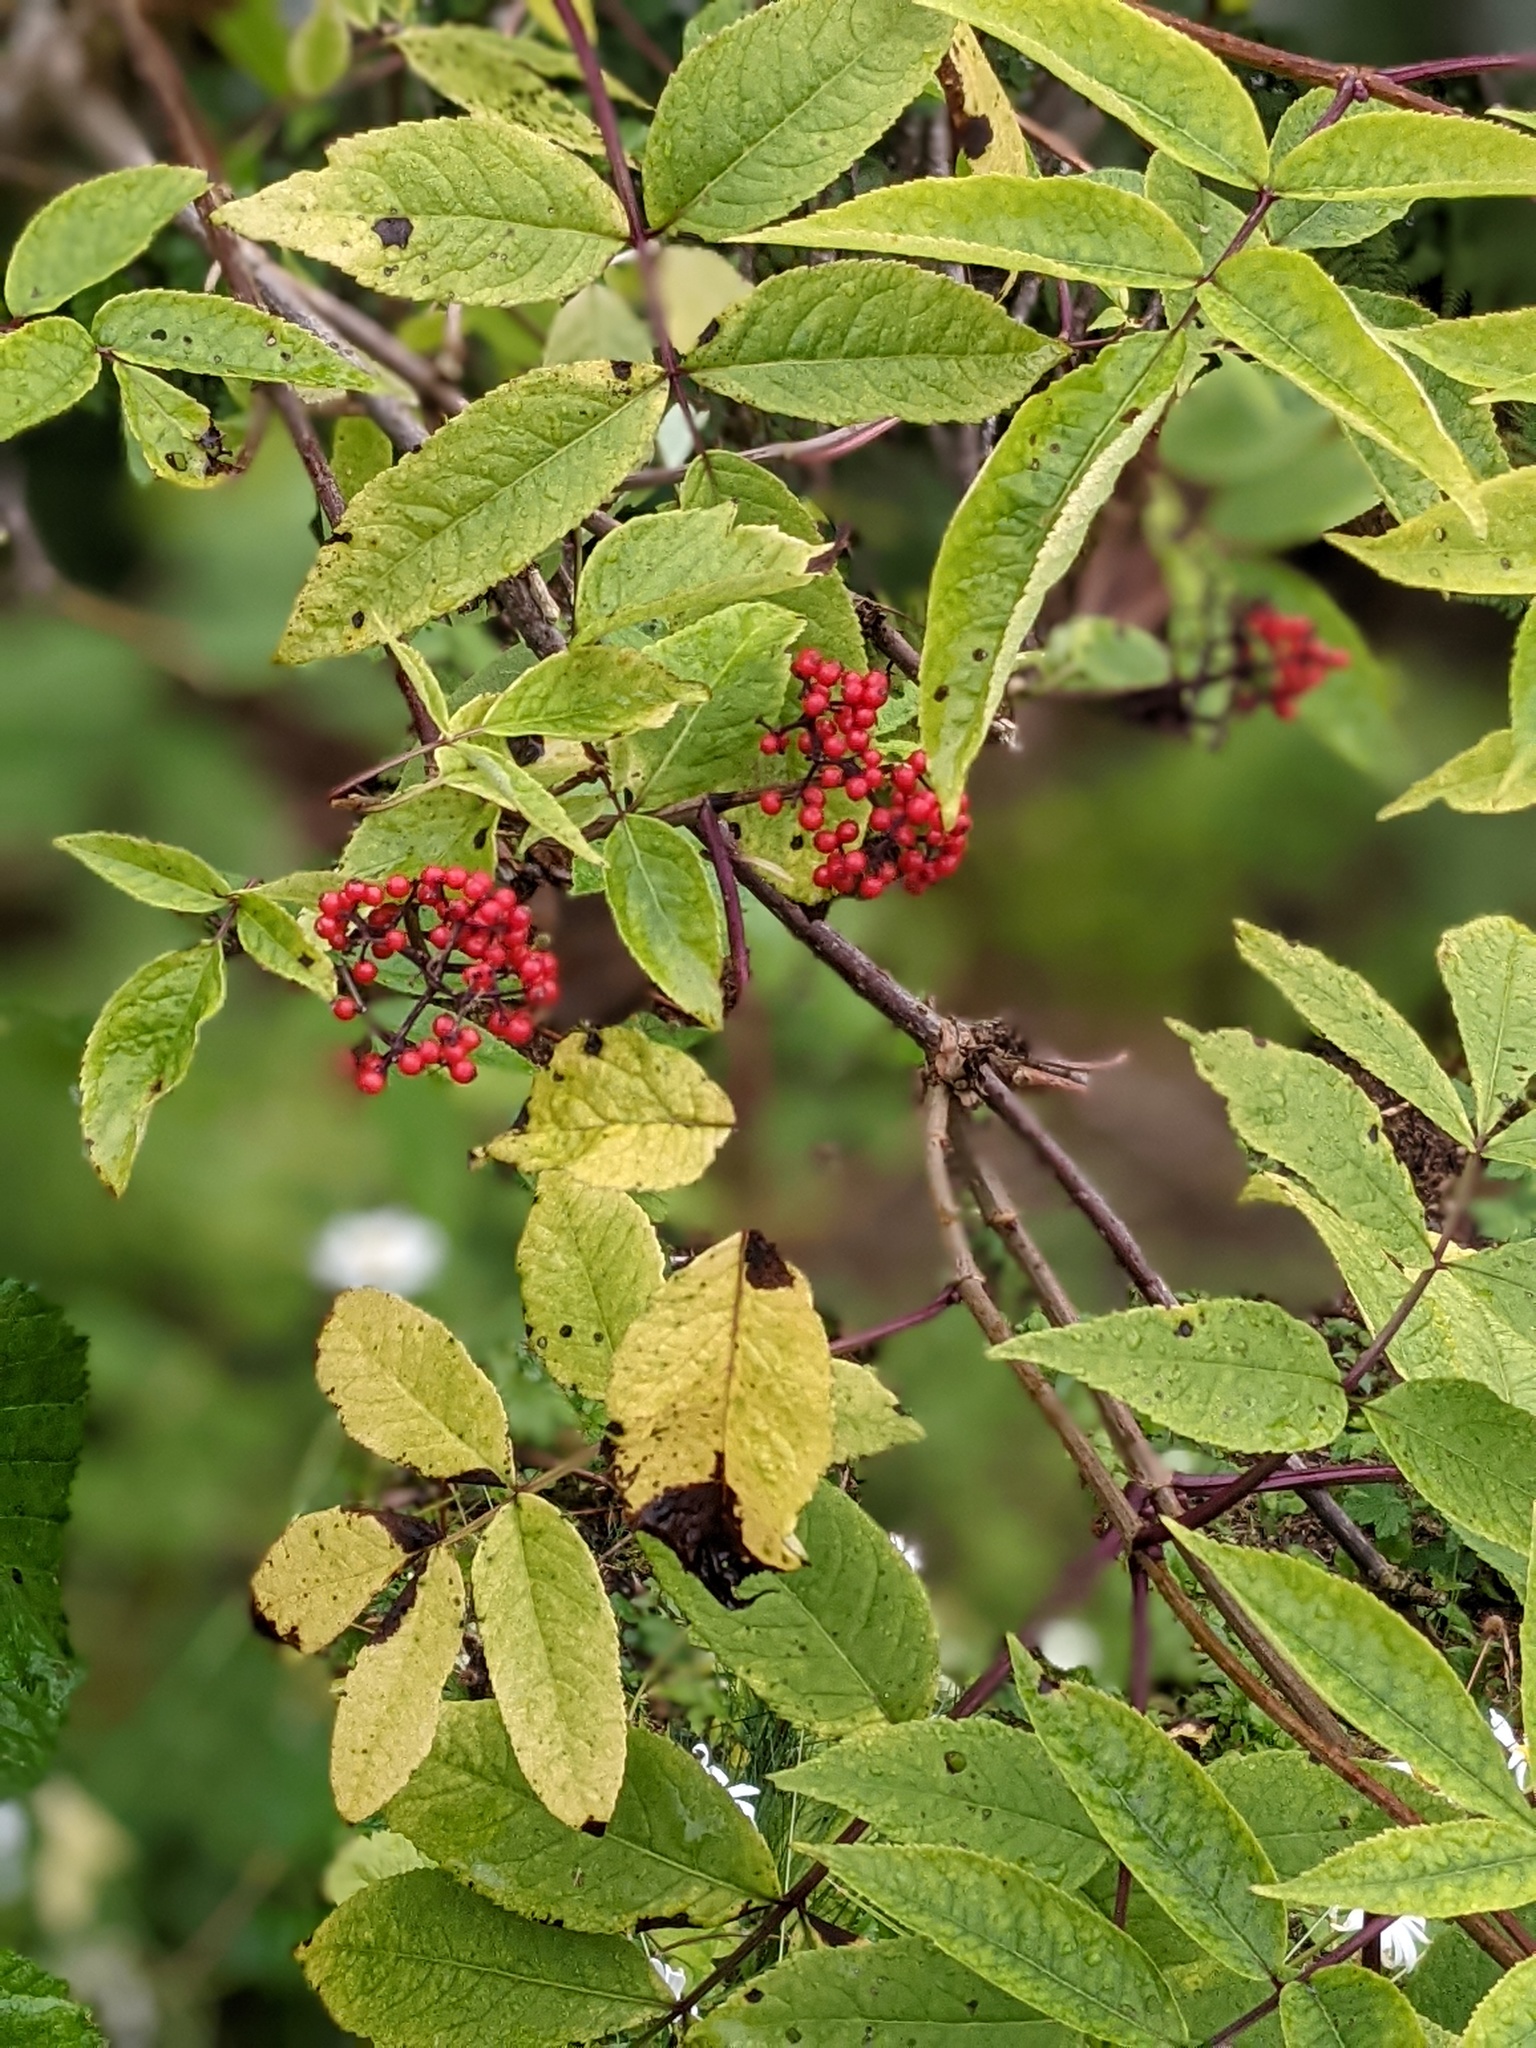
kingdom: Plantae
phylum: Tracheophyta
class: Magnoliopsida
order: Dipsacales
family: Viburnaceae
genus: Sambucus
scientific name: Sambucus racemosa
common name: Red-berried elder
